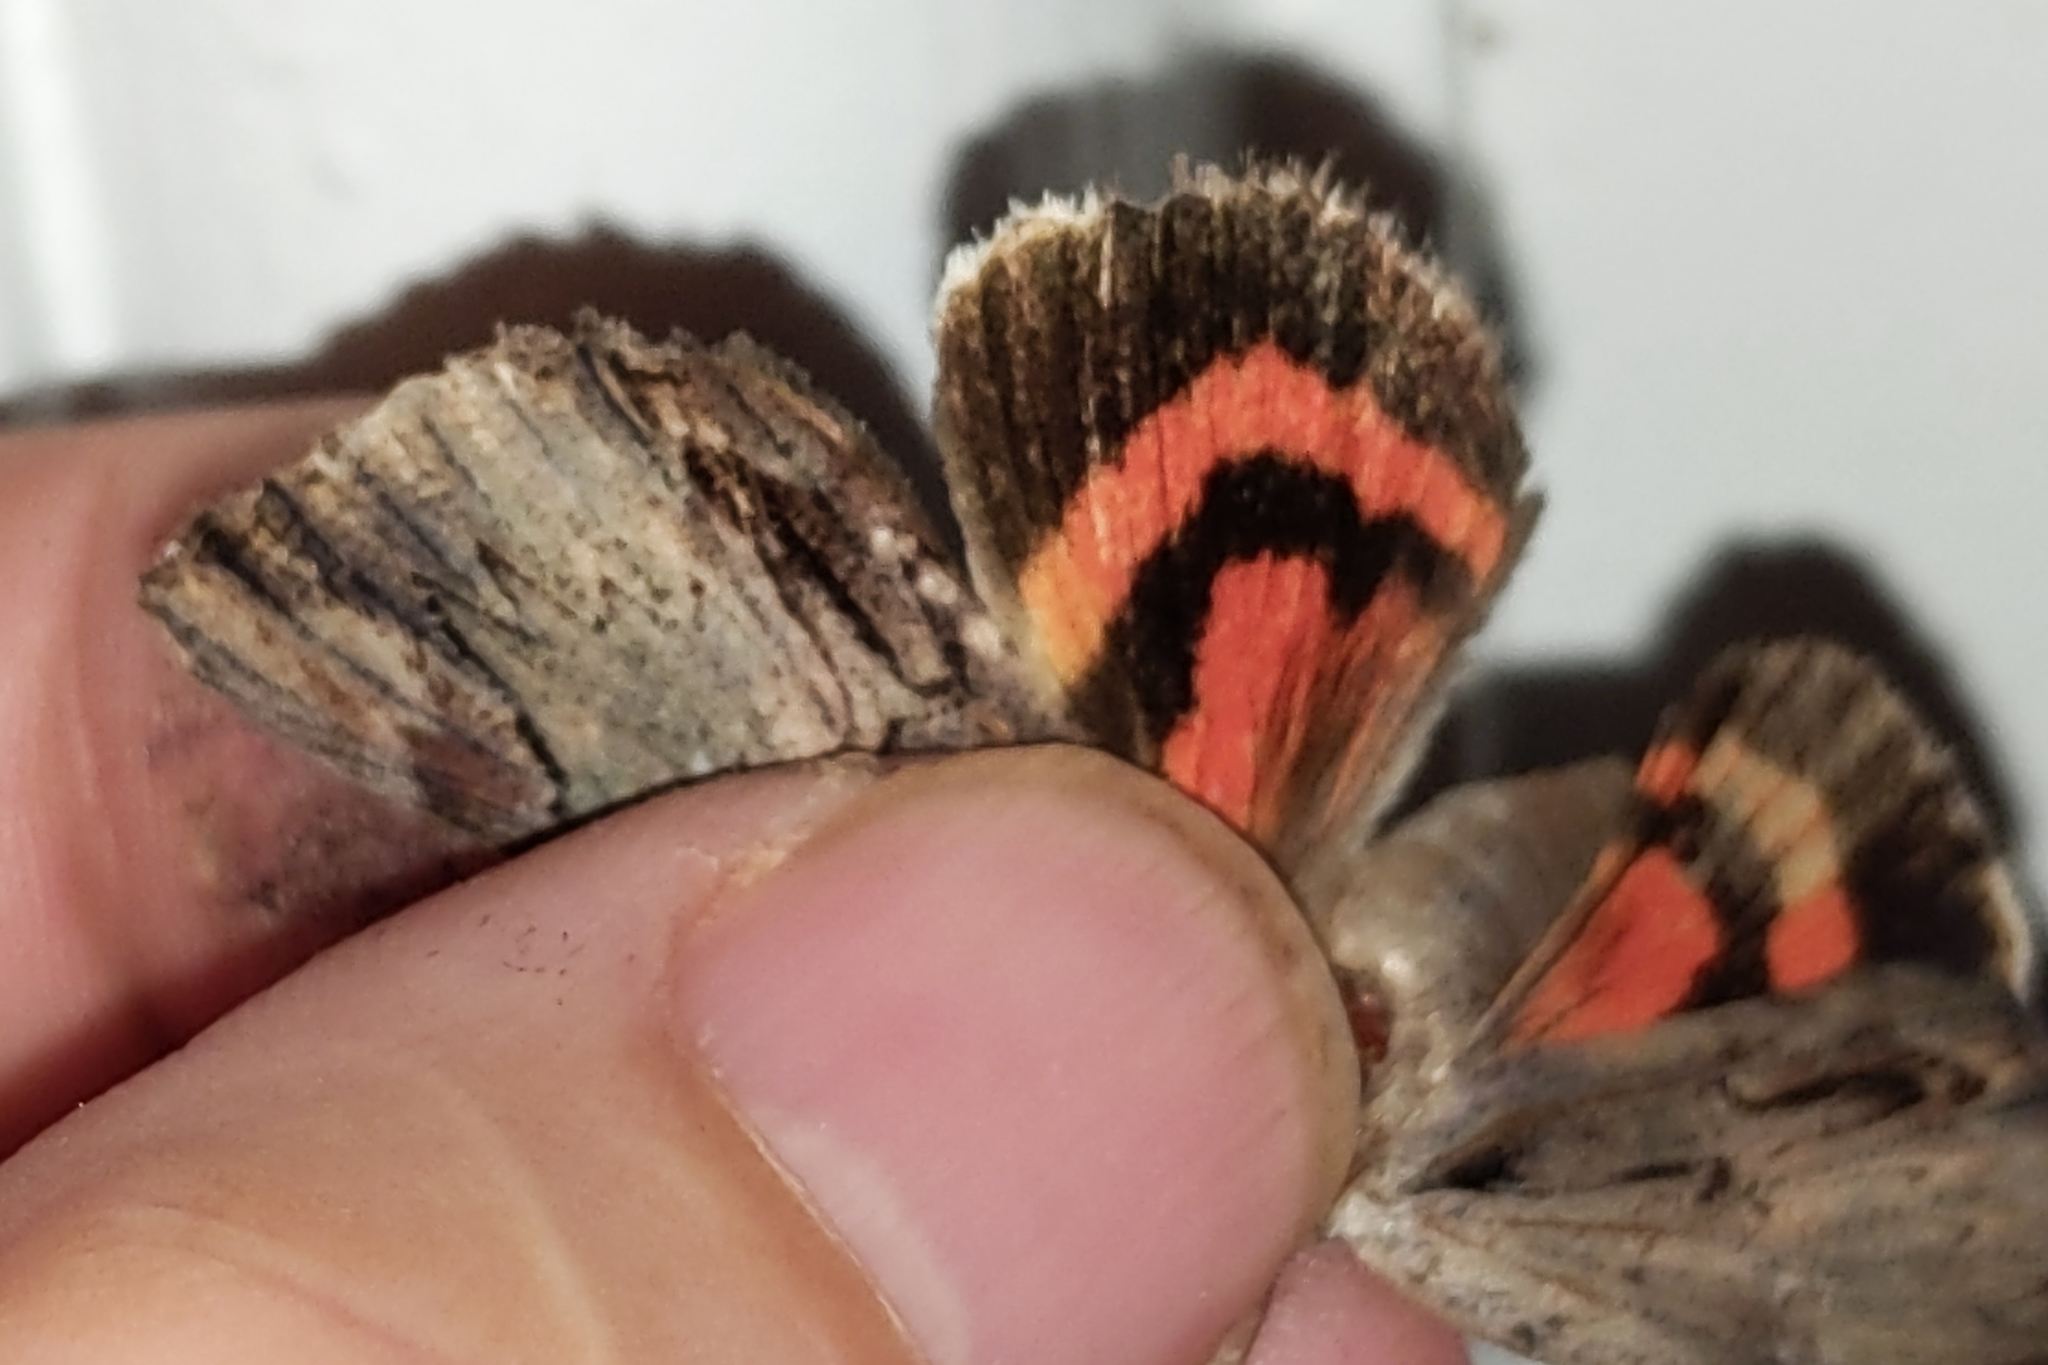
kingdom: Animalia
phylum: Arthropoda
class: Insecta
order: Lepidoptera
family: Erebidae
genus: Catocala
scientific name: Catocala ultronia
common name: Ultronia underwing
